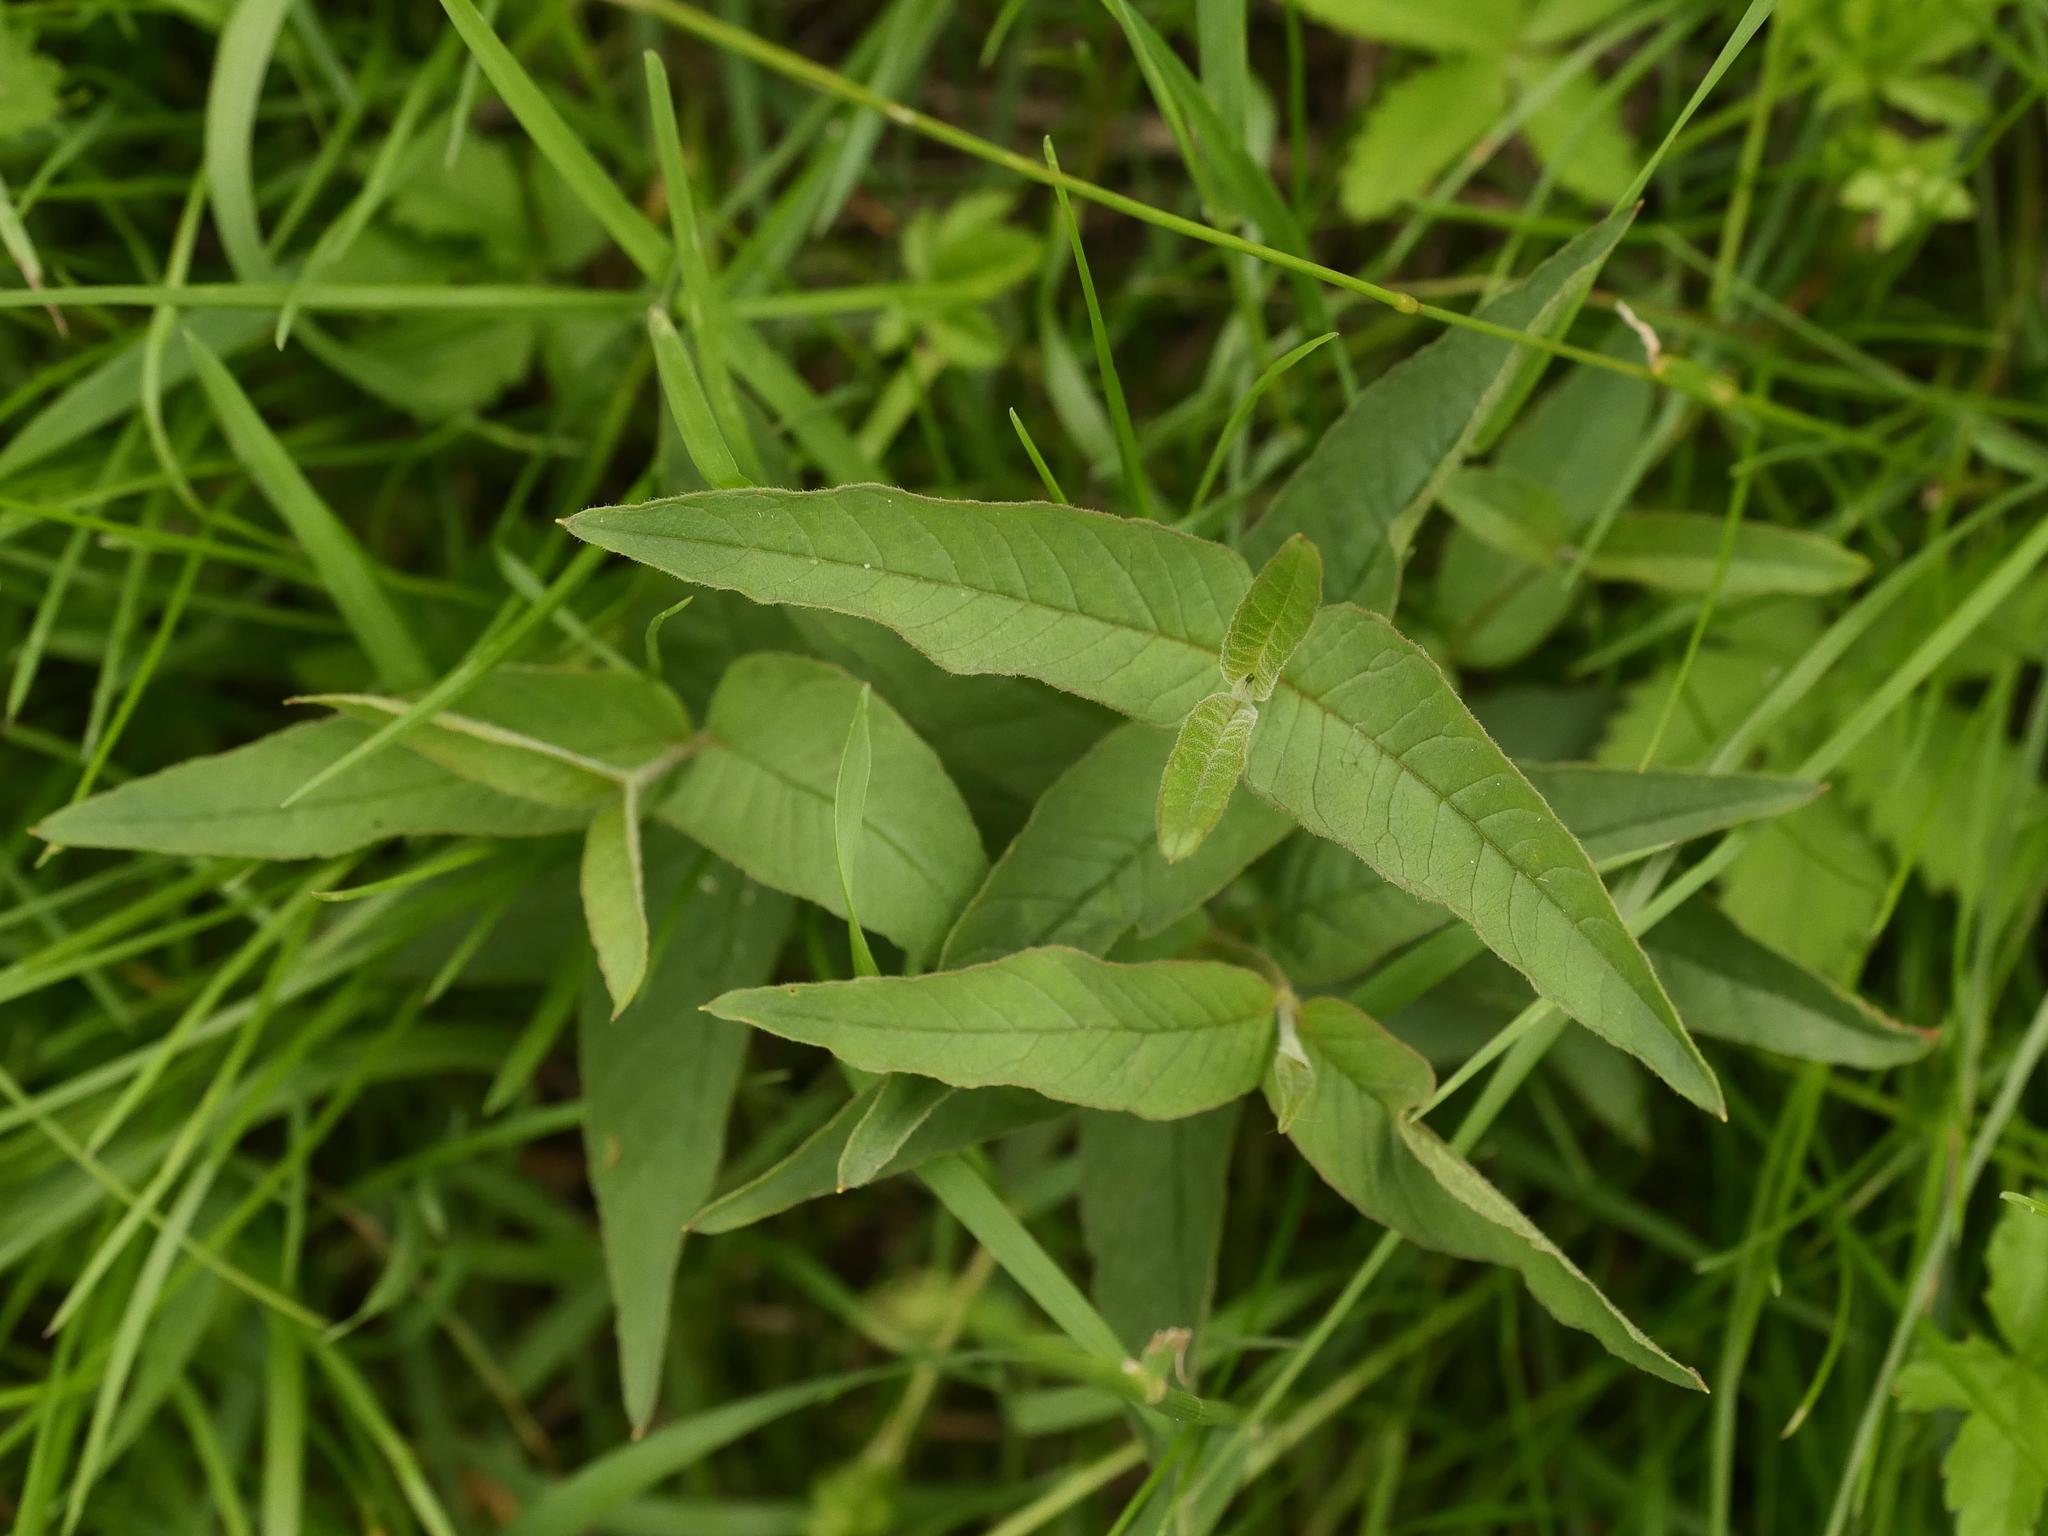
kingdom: Plantae
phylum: Tracheophyta
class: Magnoliopsida
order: Ericales
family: Primulaceae
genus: Lysimachia
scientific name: Lysimachia vulgaris
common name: Yellow loosestrife
